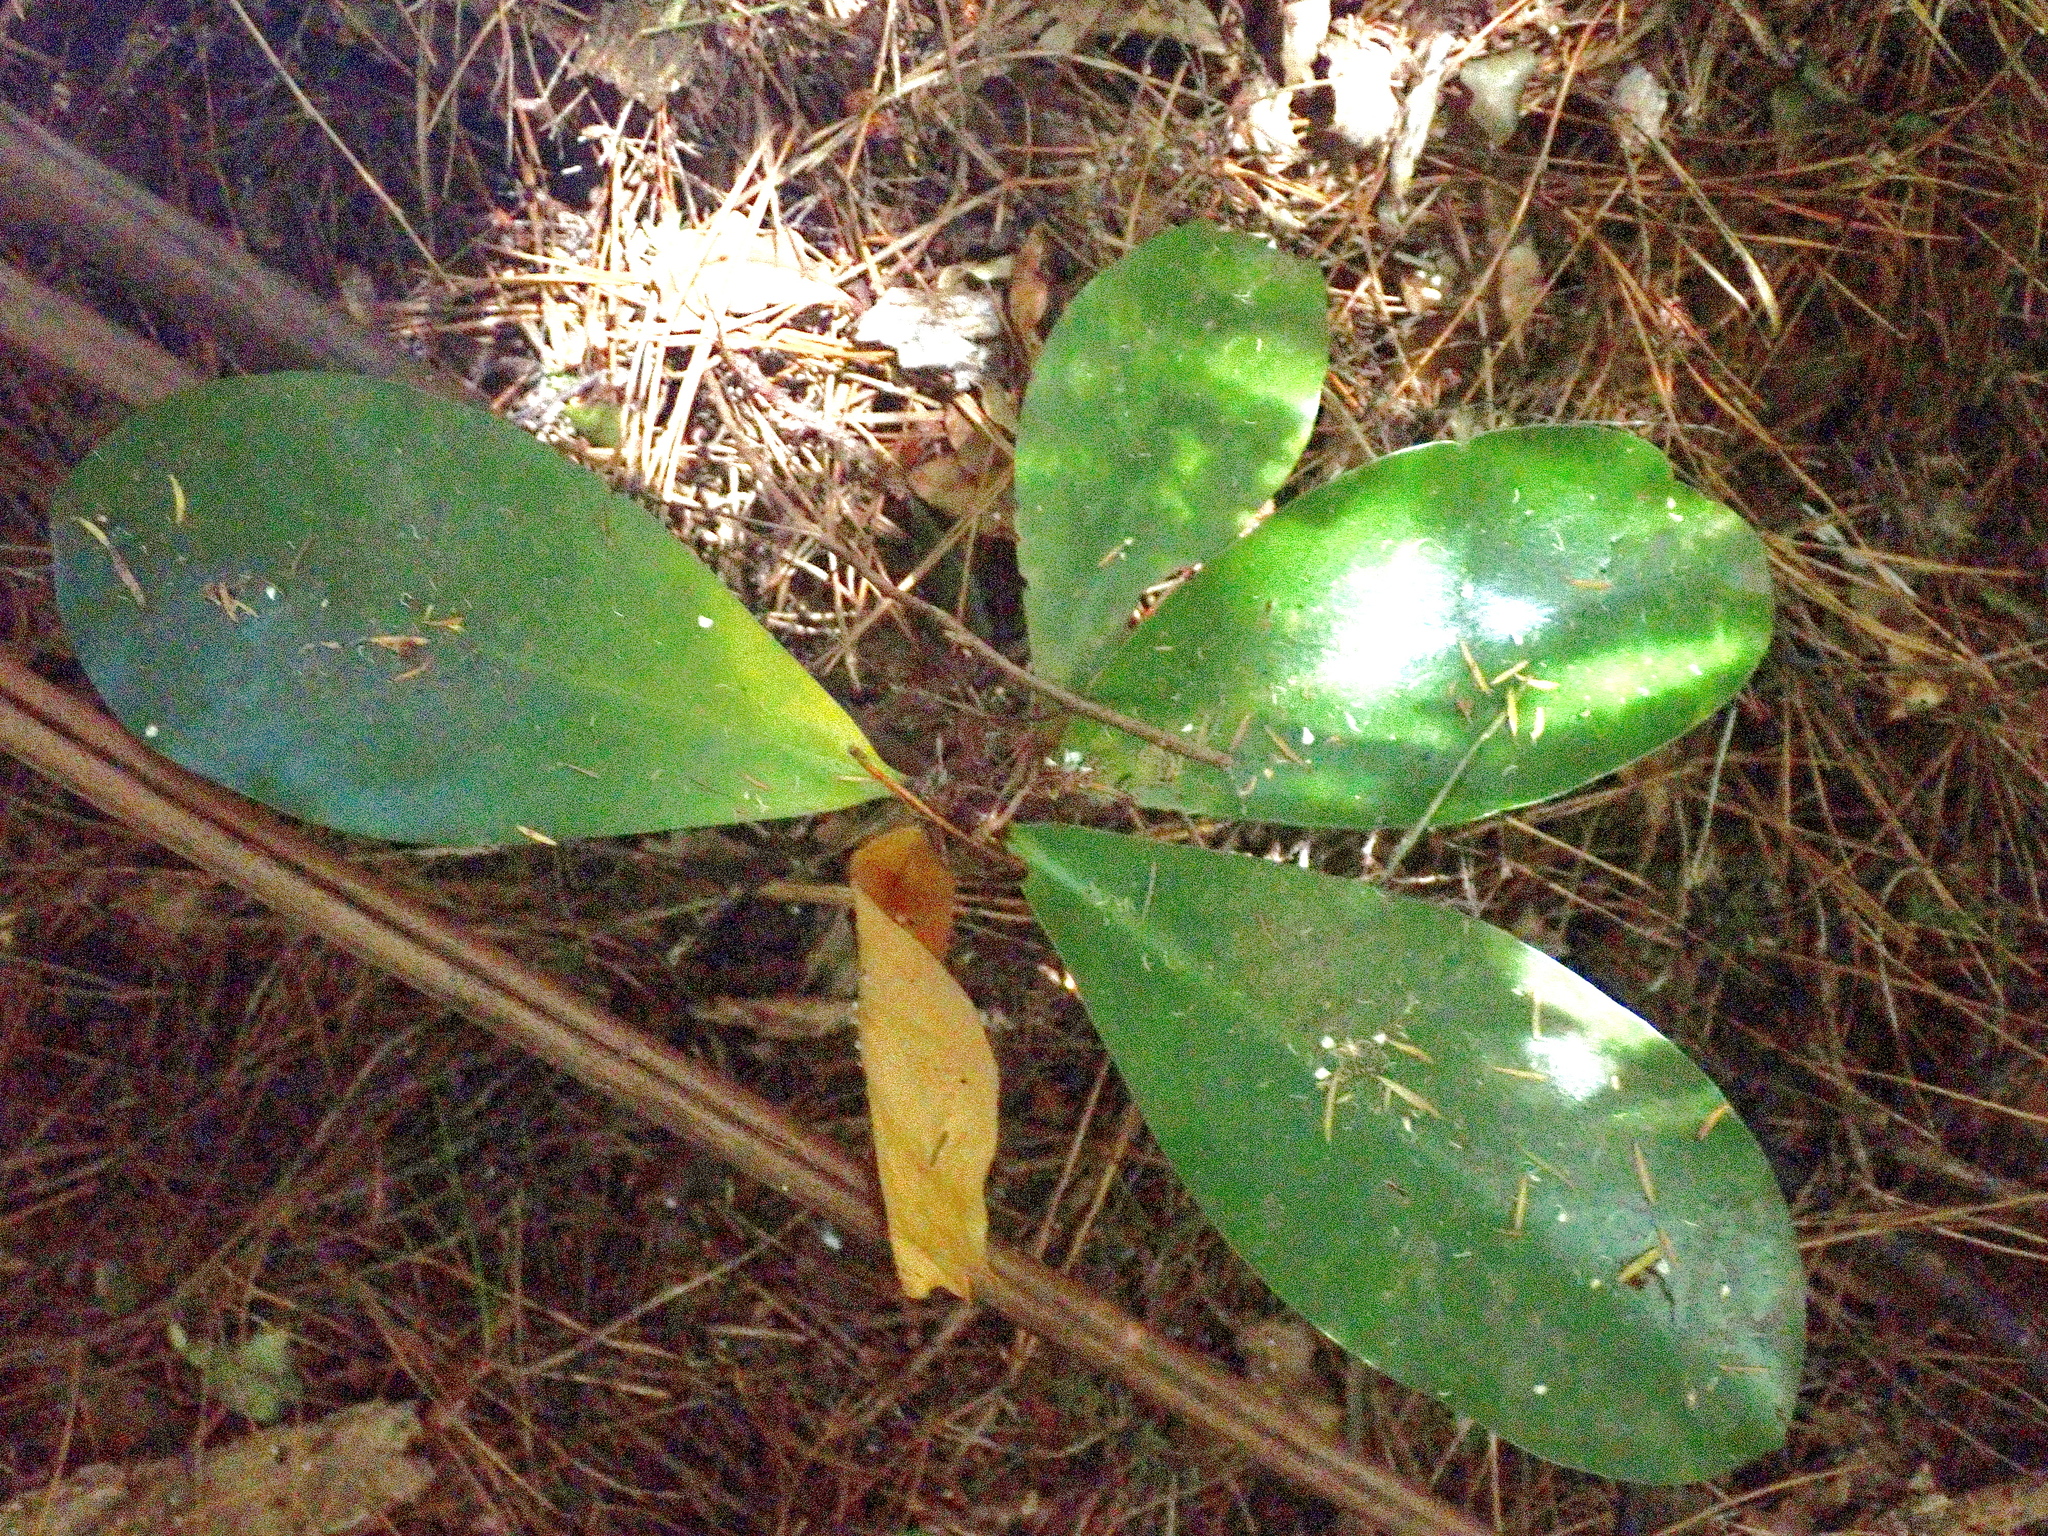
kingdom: Plantae
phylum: Tracheophyta
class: Magnoliopsida
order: Cucurbitales
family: Corynocarpaceae
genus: Corynocarpus
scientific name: Corynocarpus laevigatus
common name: New zealand laurel
